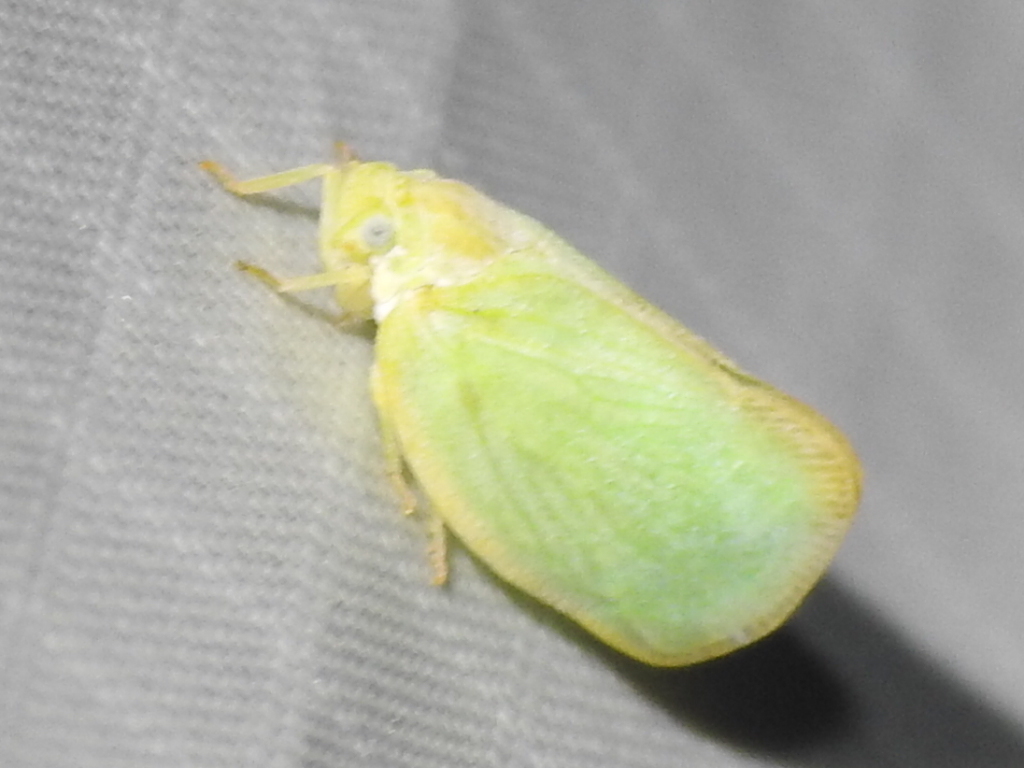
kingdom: Animalia
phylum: Arthropoda
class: Insecta
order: Hemiptera
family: Flatidae
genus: Ormenoides
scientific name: Ormenoides venusta
